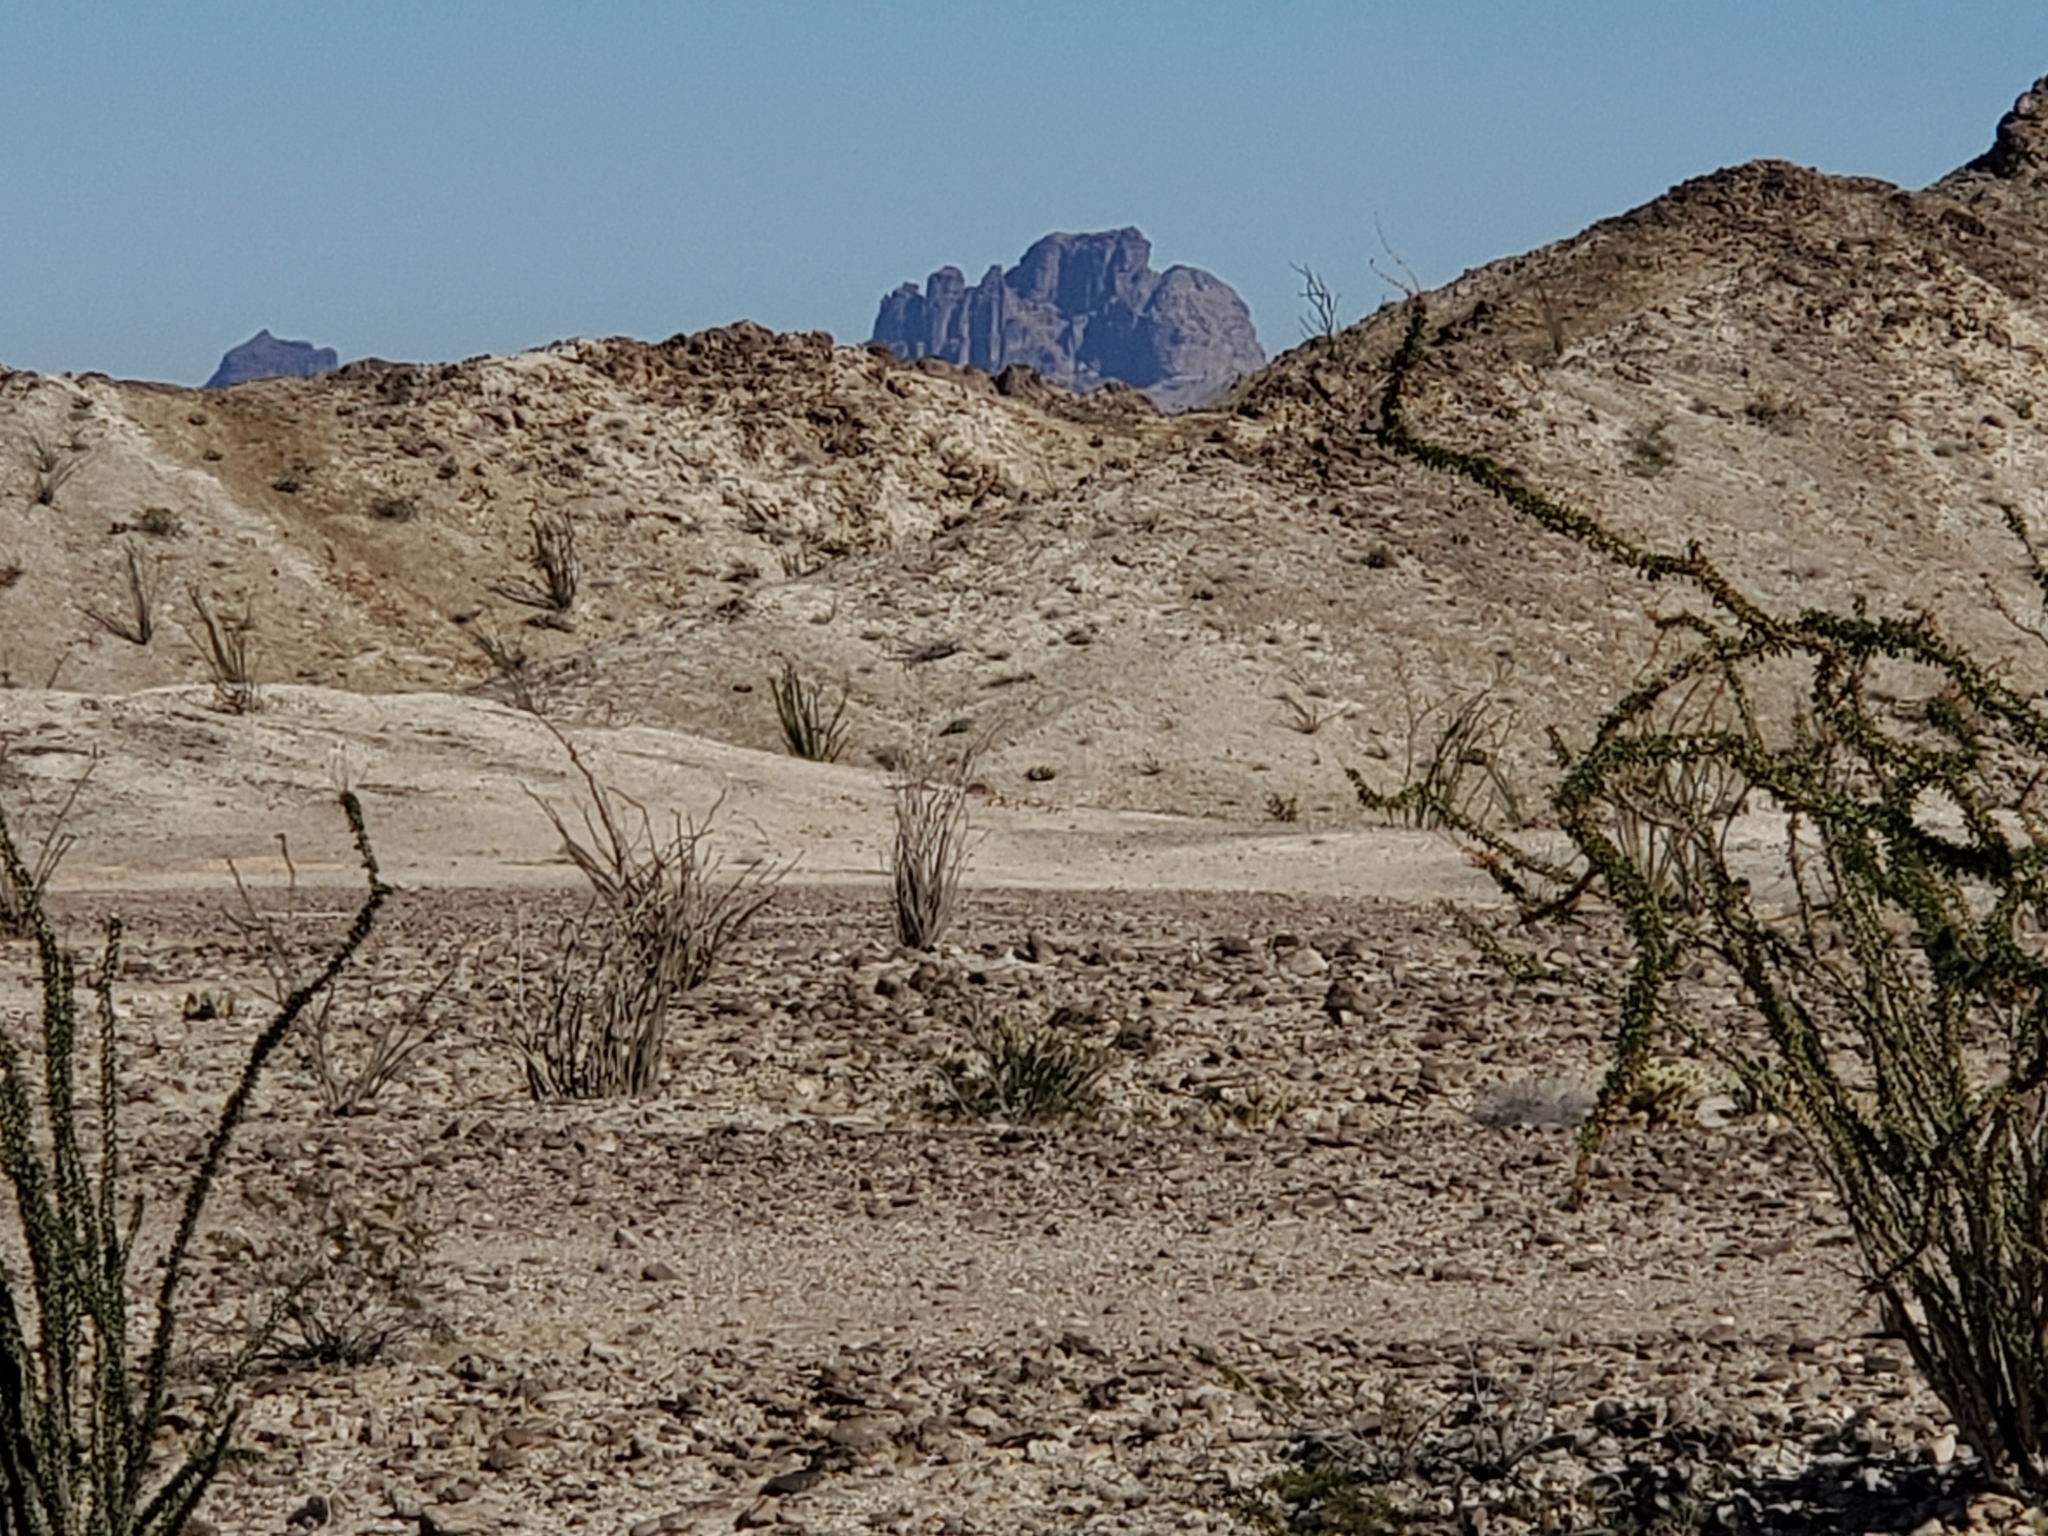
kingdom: Plantae
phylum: Tracheophyta
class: Magnoliopsida
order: Ericales
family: Fouquieriaceae
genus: Fouquieria
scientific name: Fouquieria splendens
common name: Vine-cactus
